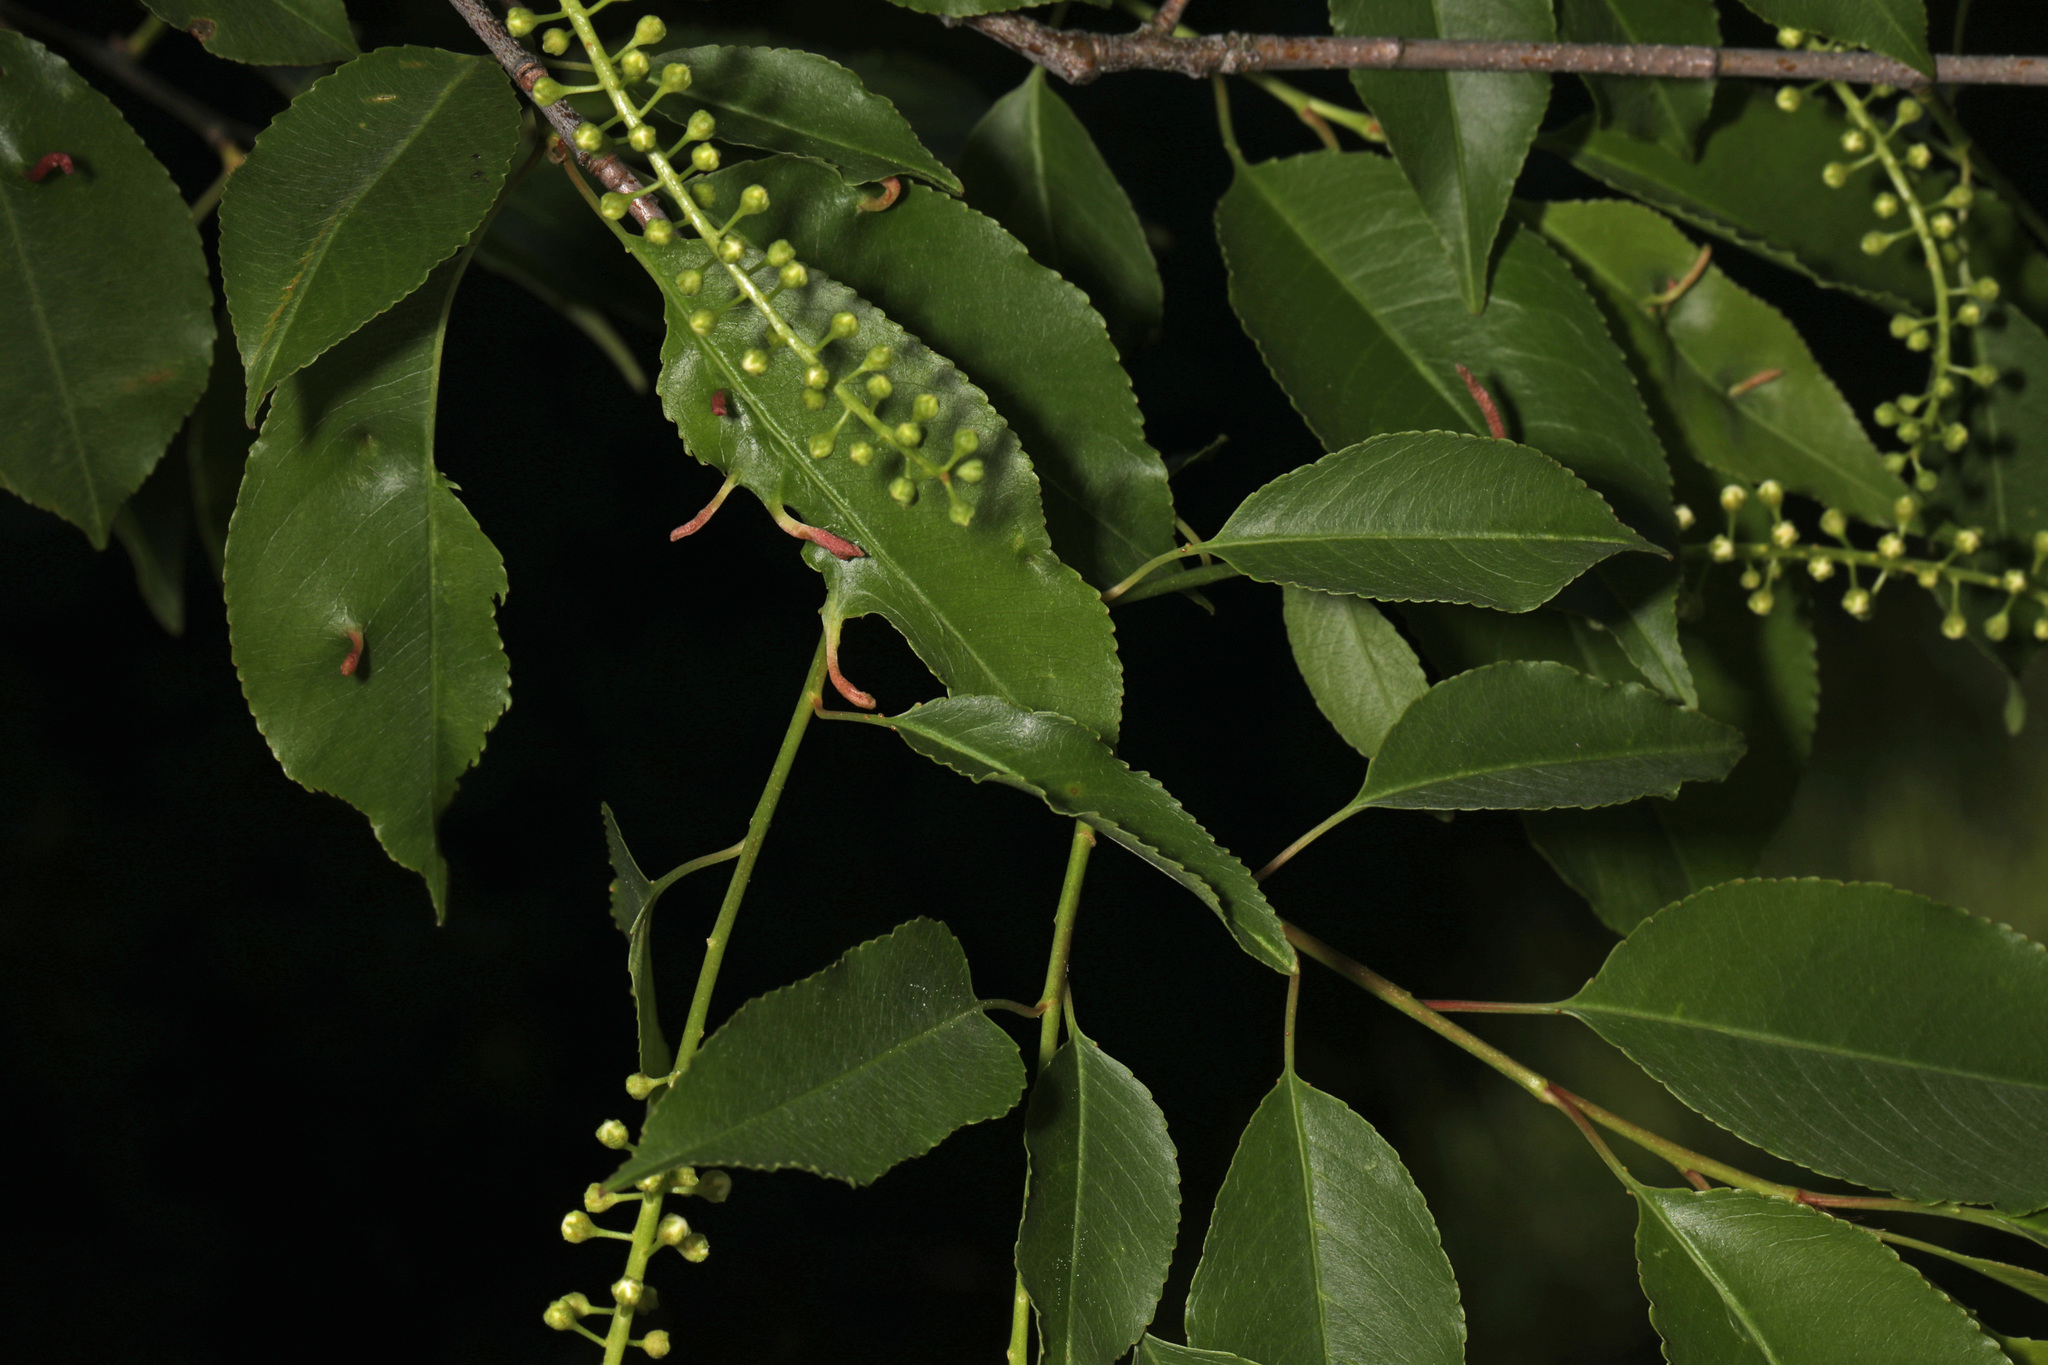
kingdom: Plantae
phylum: Tracheophyta
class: Magnoliopsida
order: Rosales
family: Rosaceae
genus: Prunus
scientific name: Prunus serotina
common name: Black cherry
